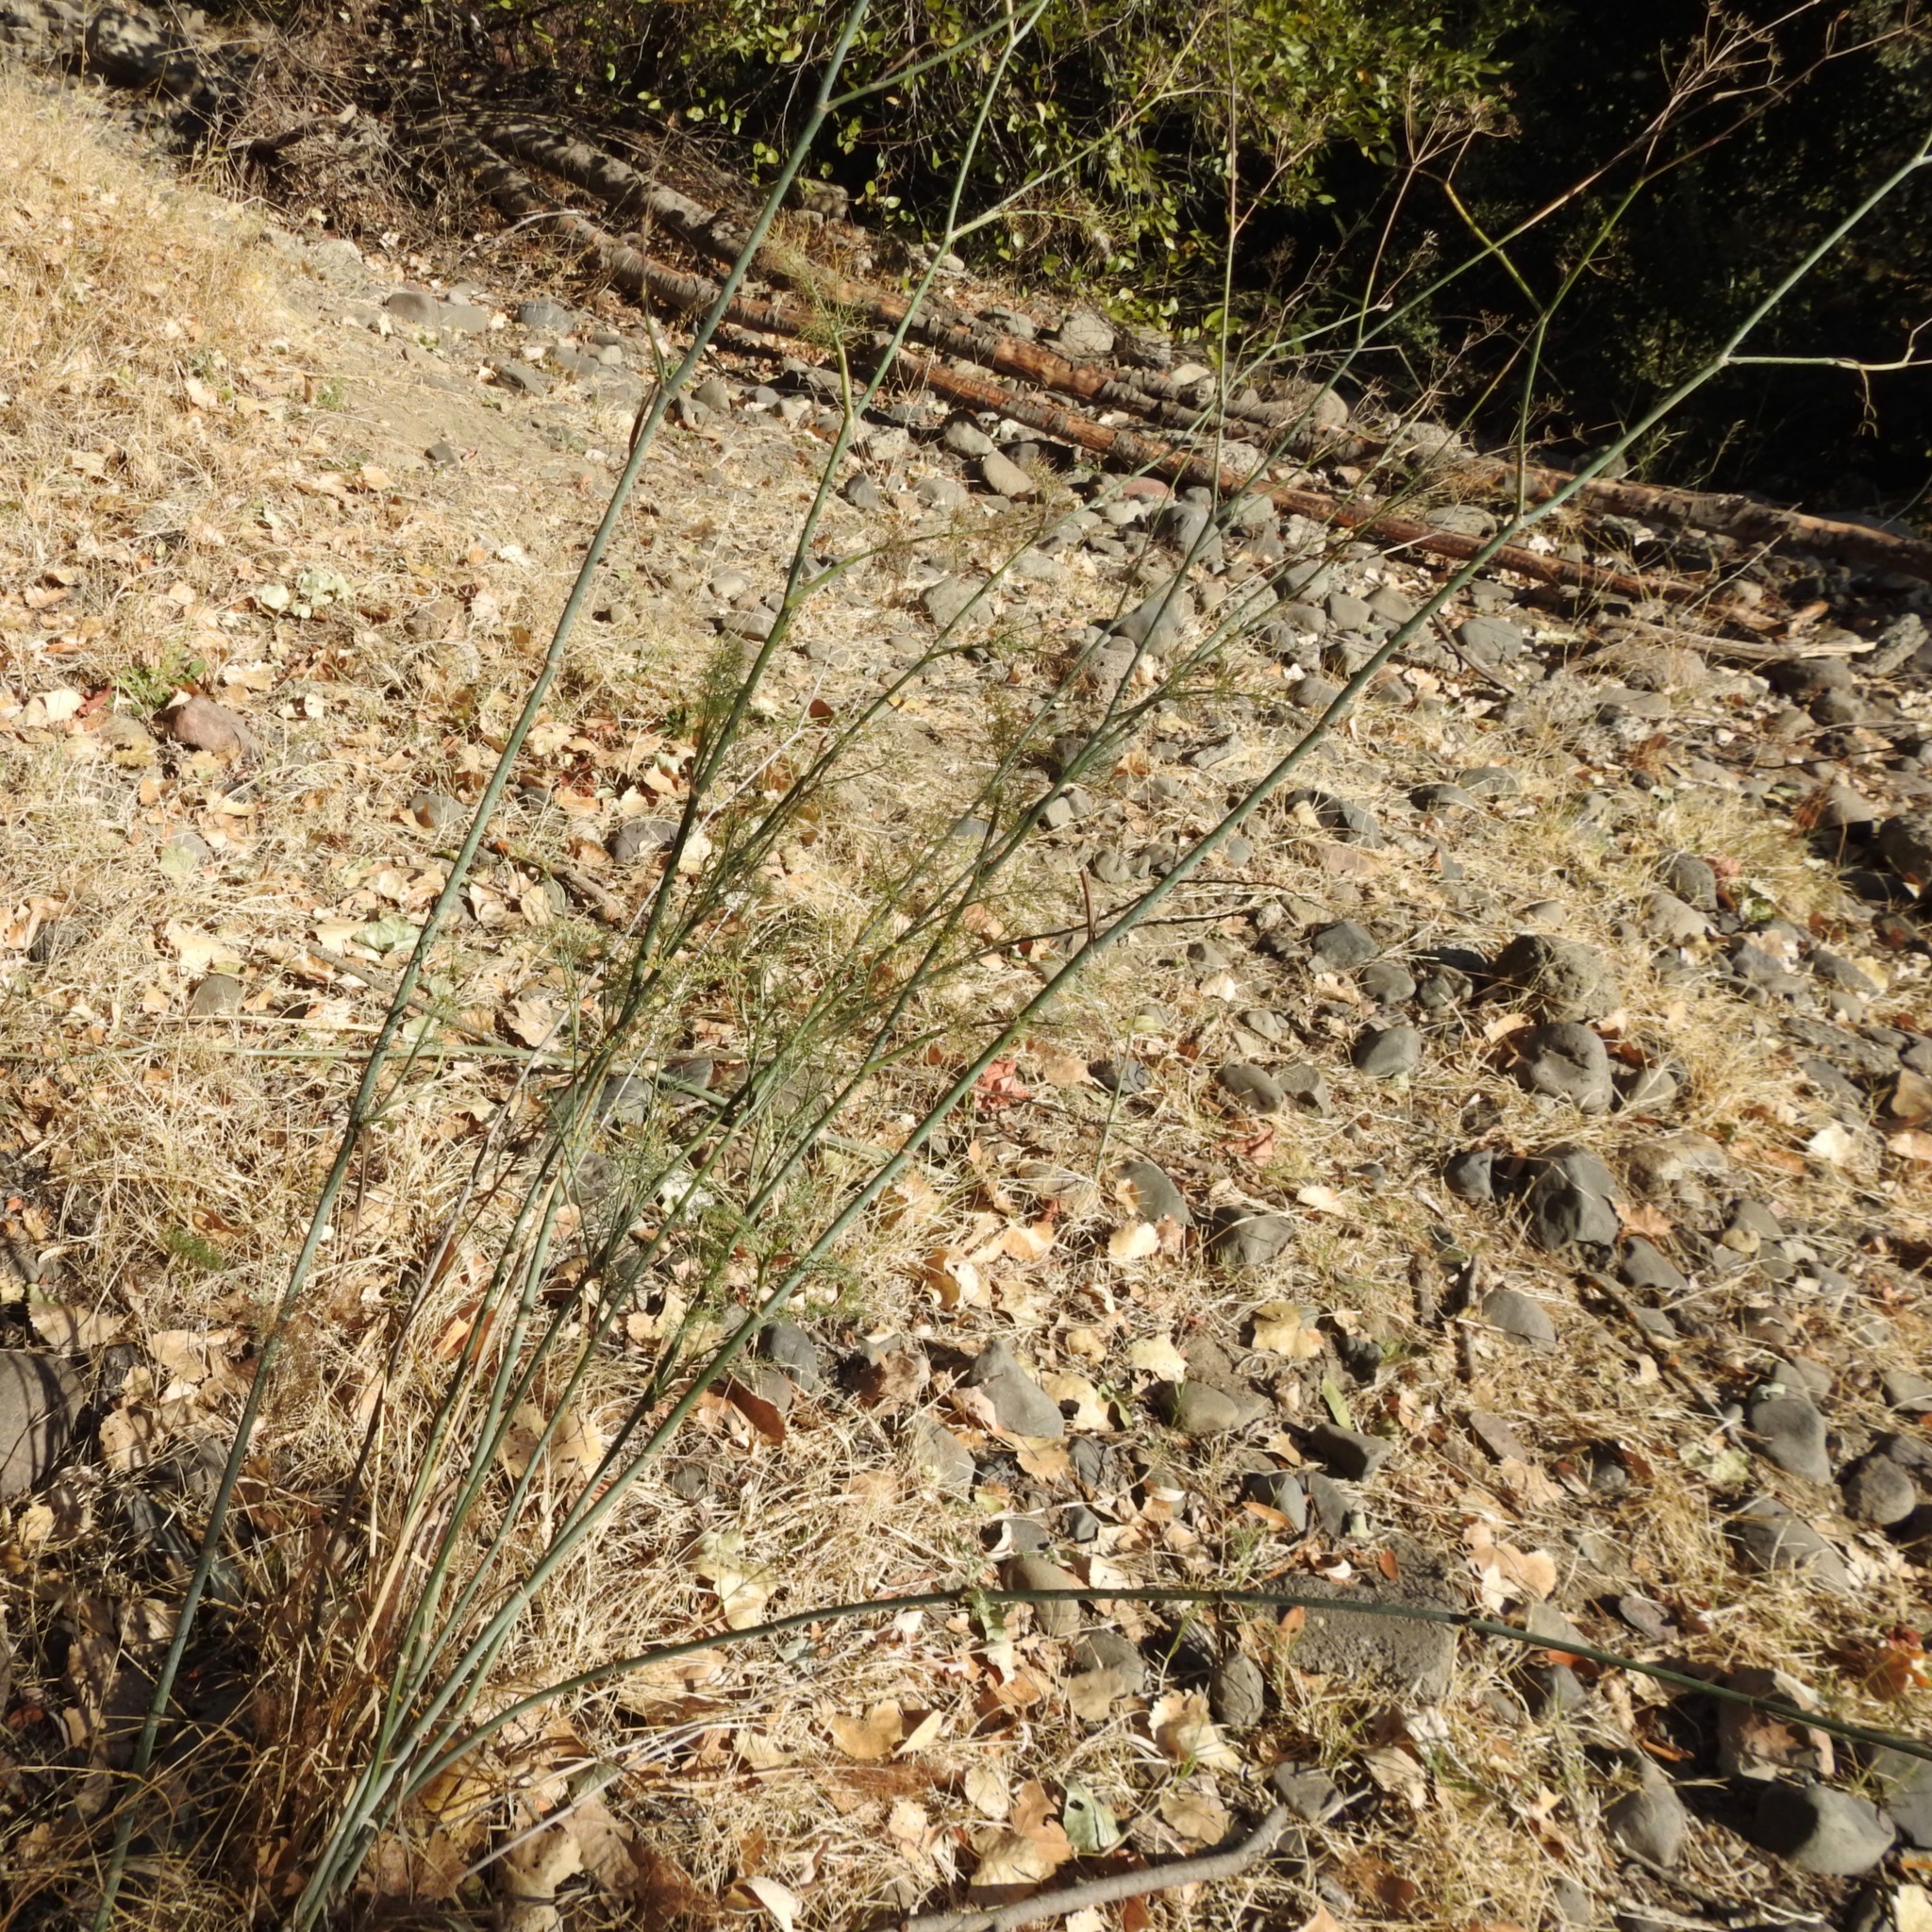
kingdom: Plantae
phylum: Tracheophyta
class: Magnoliopsida
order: Apiales
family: Apiaceae
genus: Foeniculum
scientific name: Foeniculum vulgare
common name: Fennel
